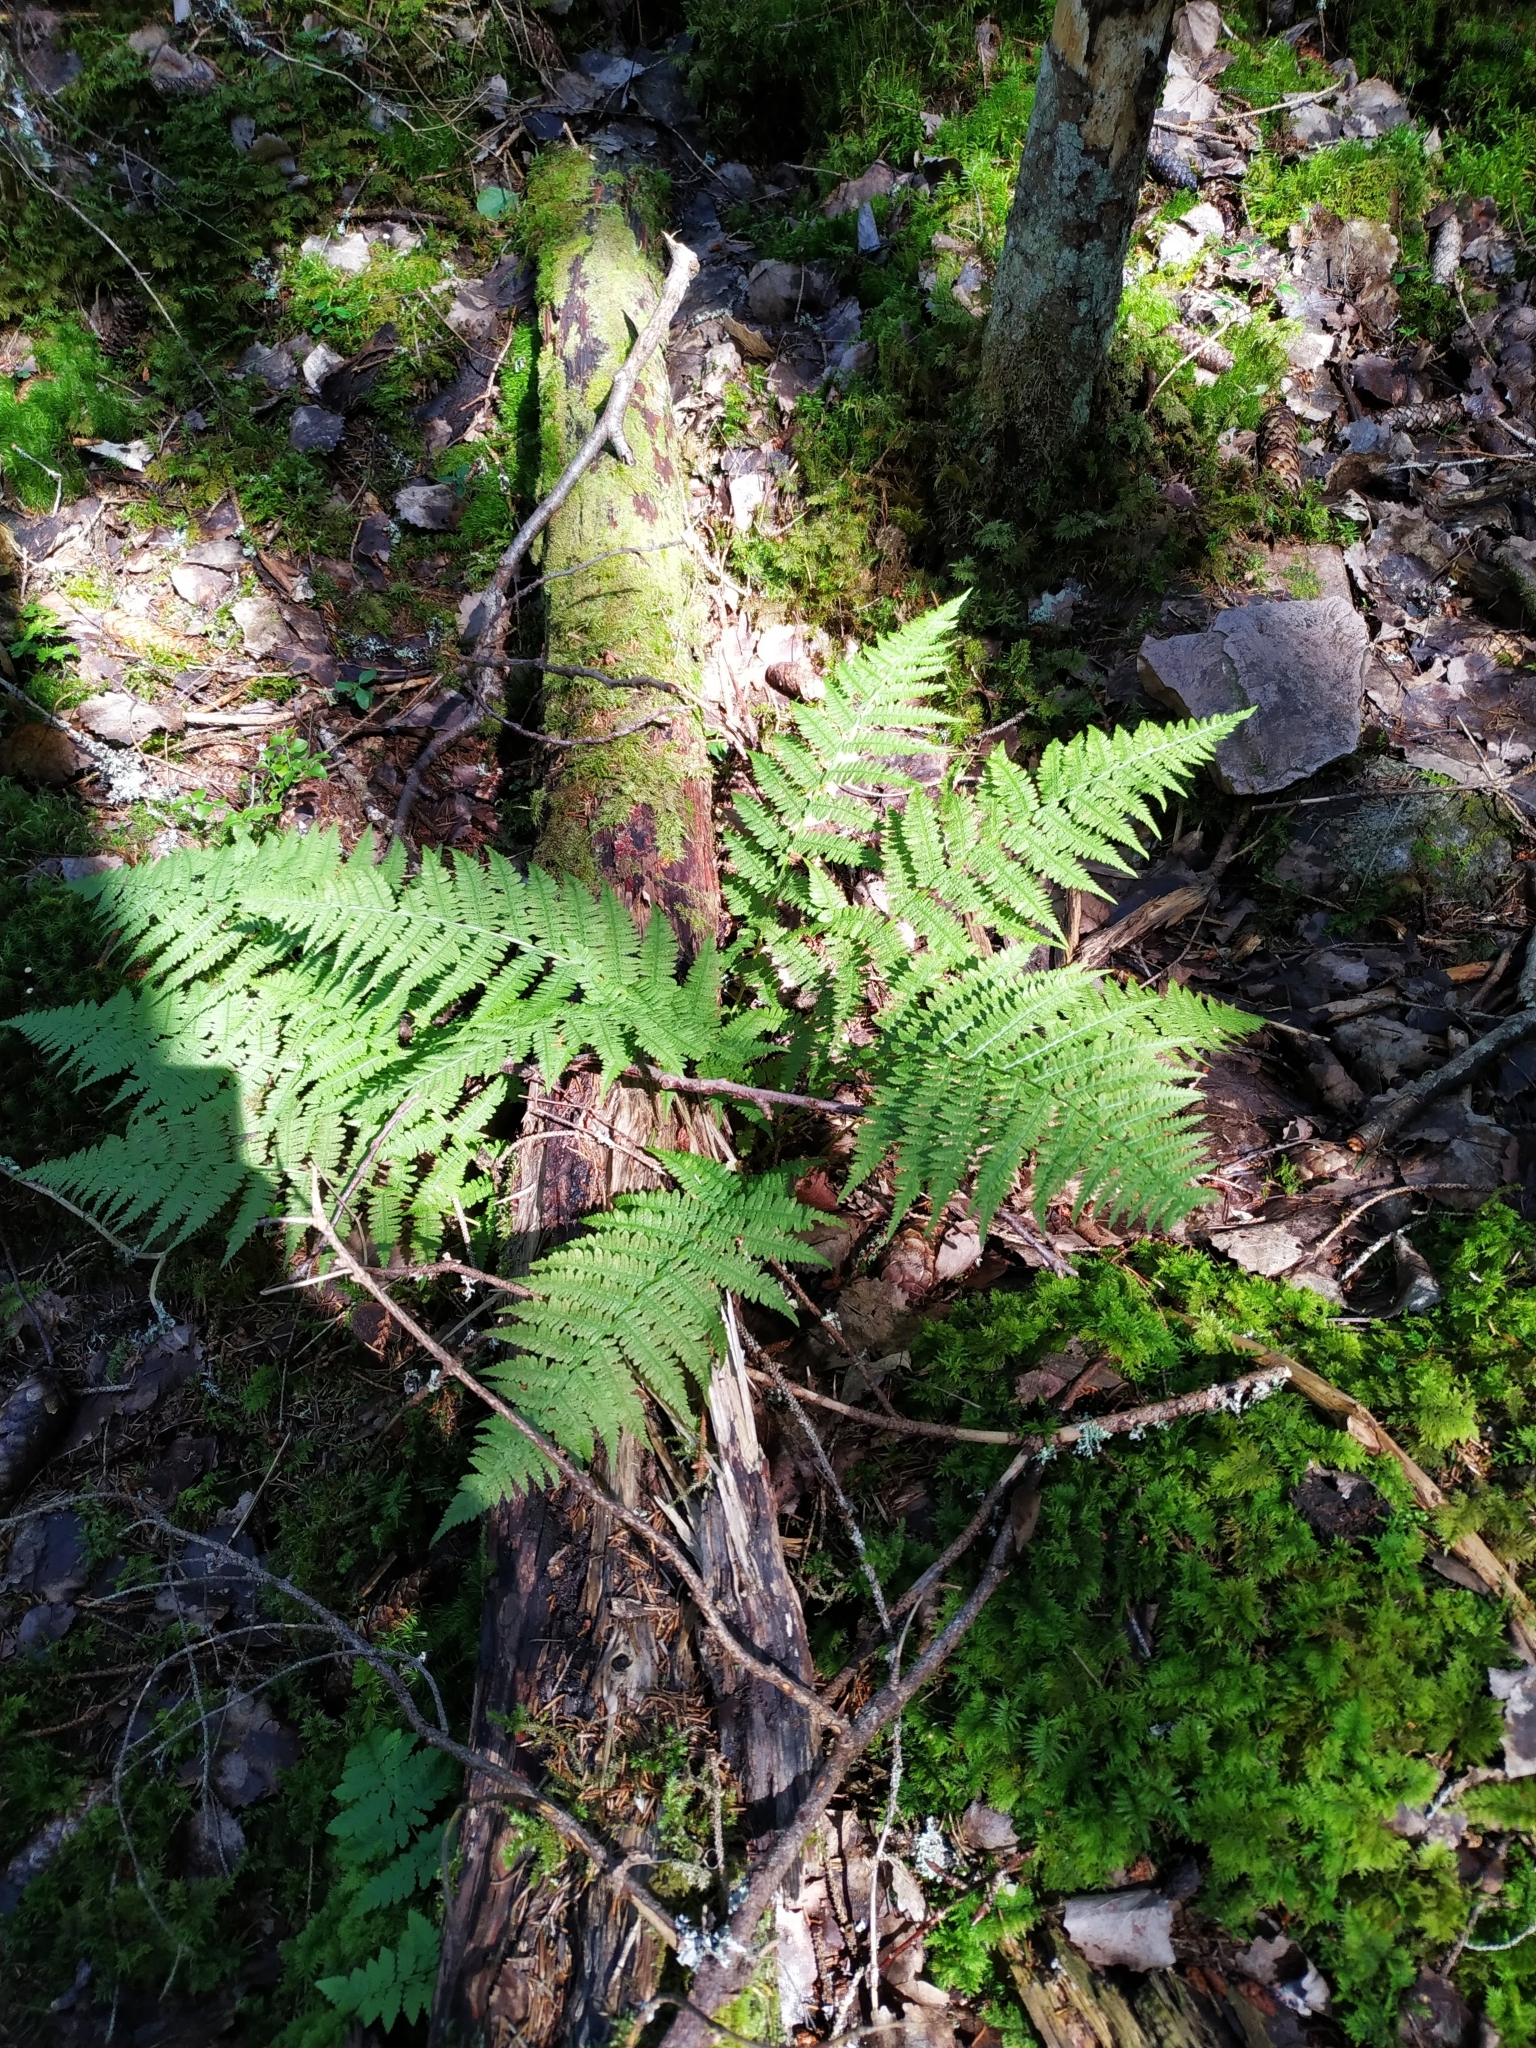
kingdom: Plantae
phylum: Tracheophyta
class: Polypodiopsida
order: Polypodiales
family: Athyriaceae
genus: Athyrium
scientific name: Athyrium filix-femina
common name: Lady fern
